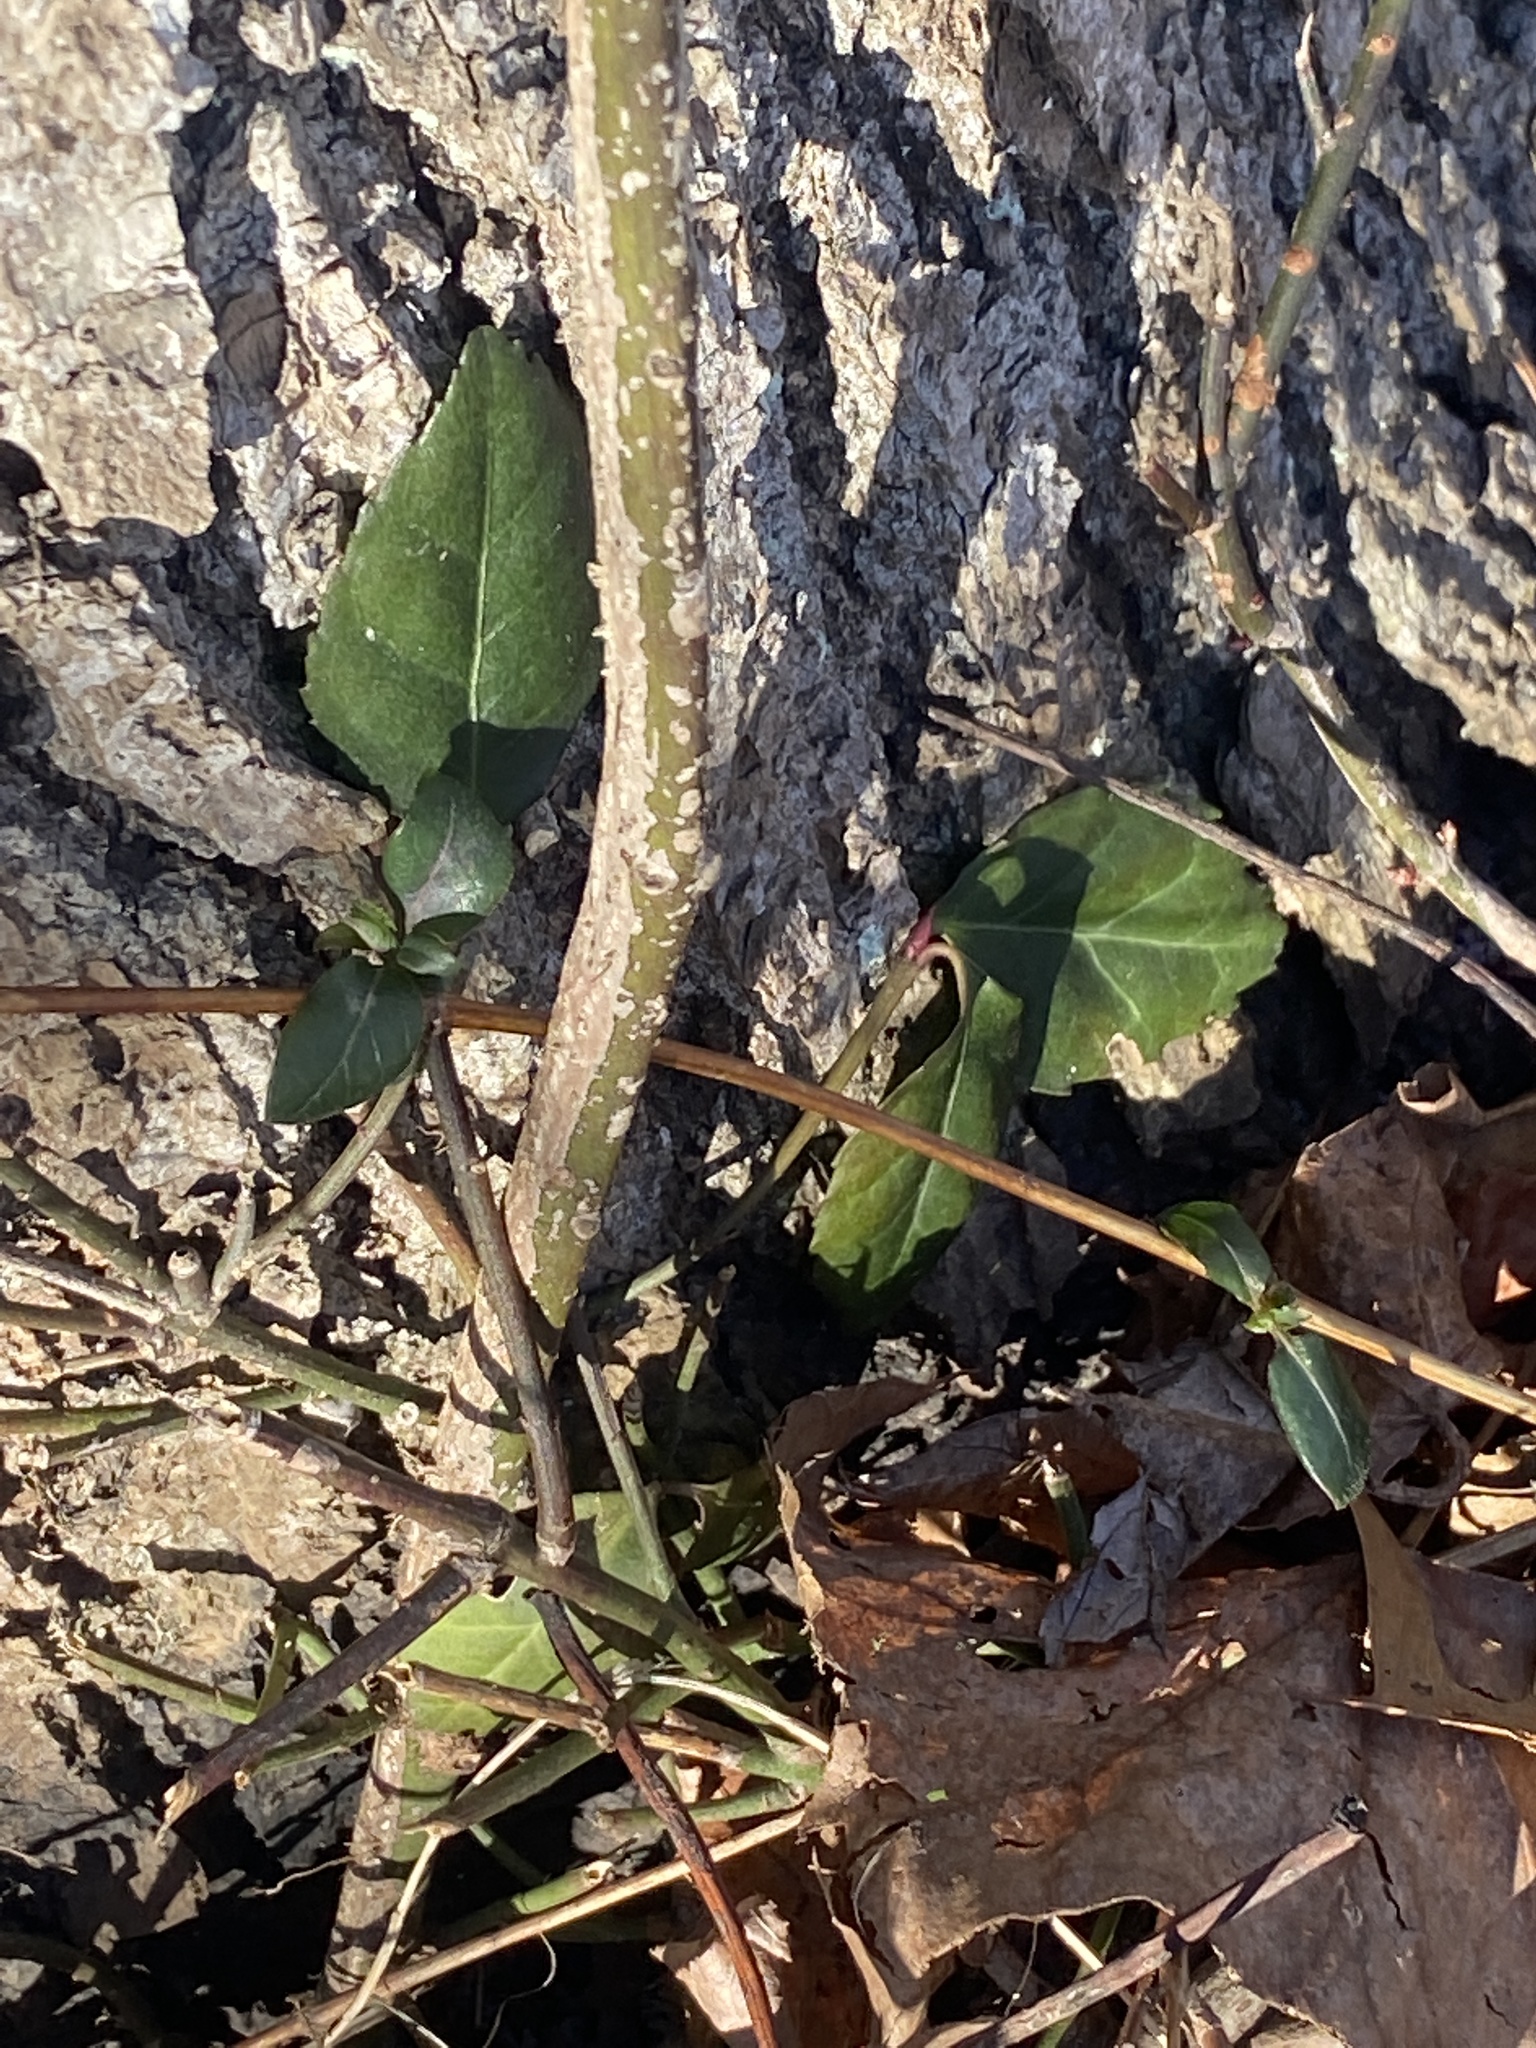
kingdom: Plantae
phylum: Tracheophyta
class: Magnoliopsida
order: Celastrales
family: Celastraceae
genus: Euonymus
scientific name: Euonymus fortunei
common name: Climbing euonymus
